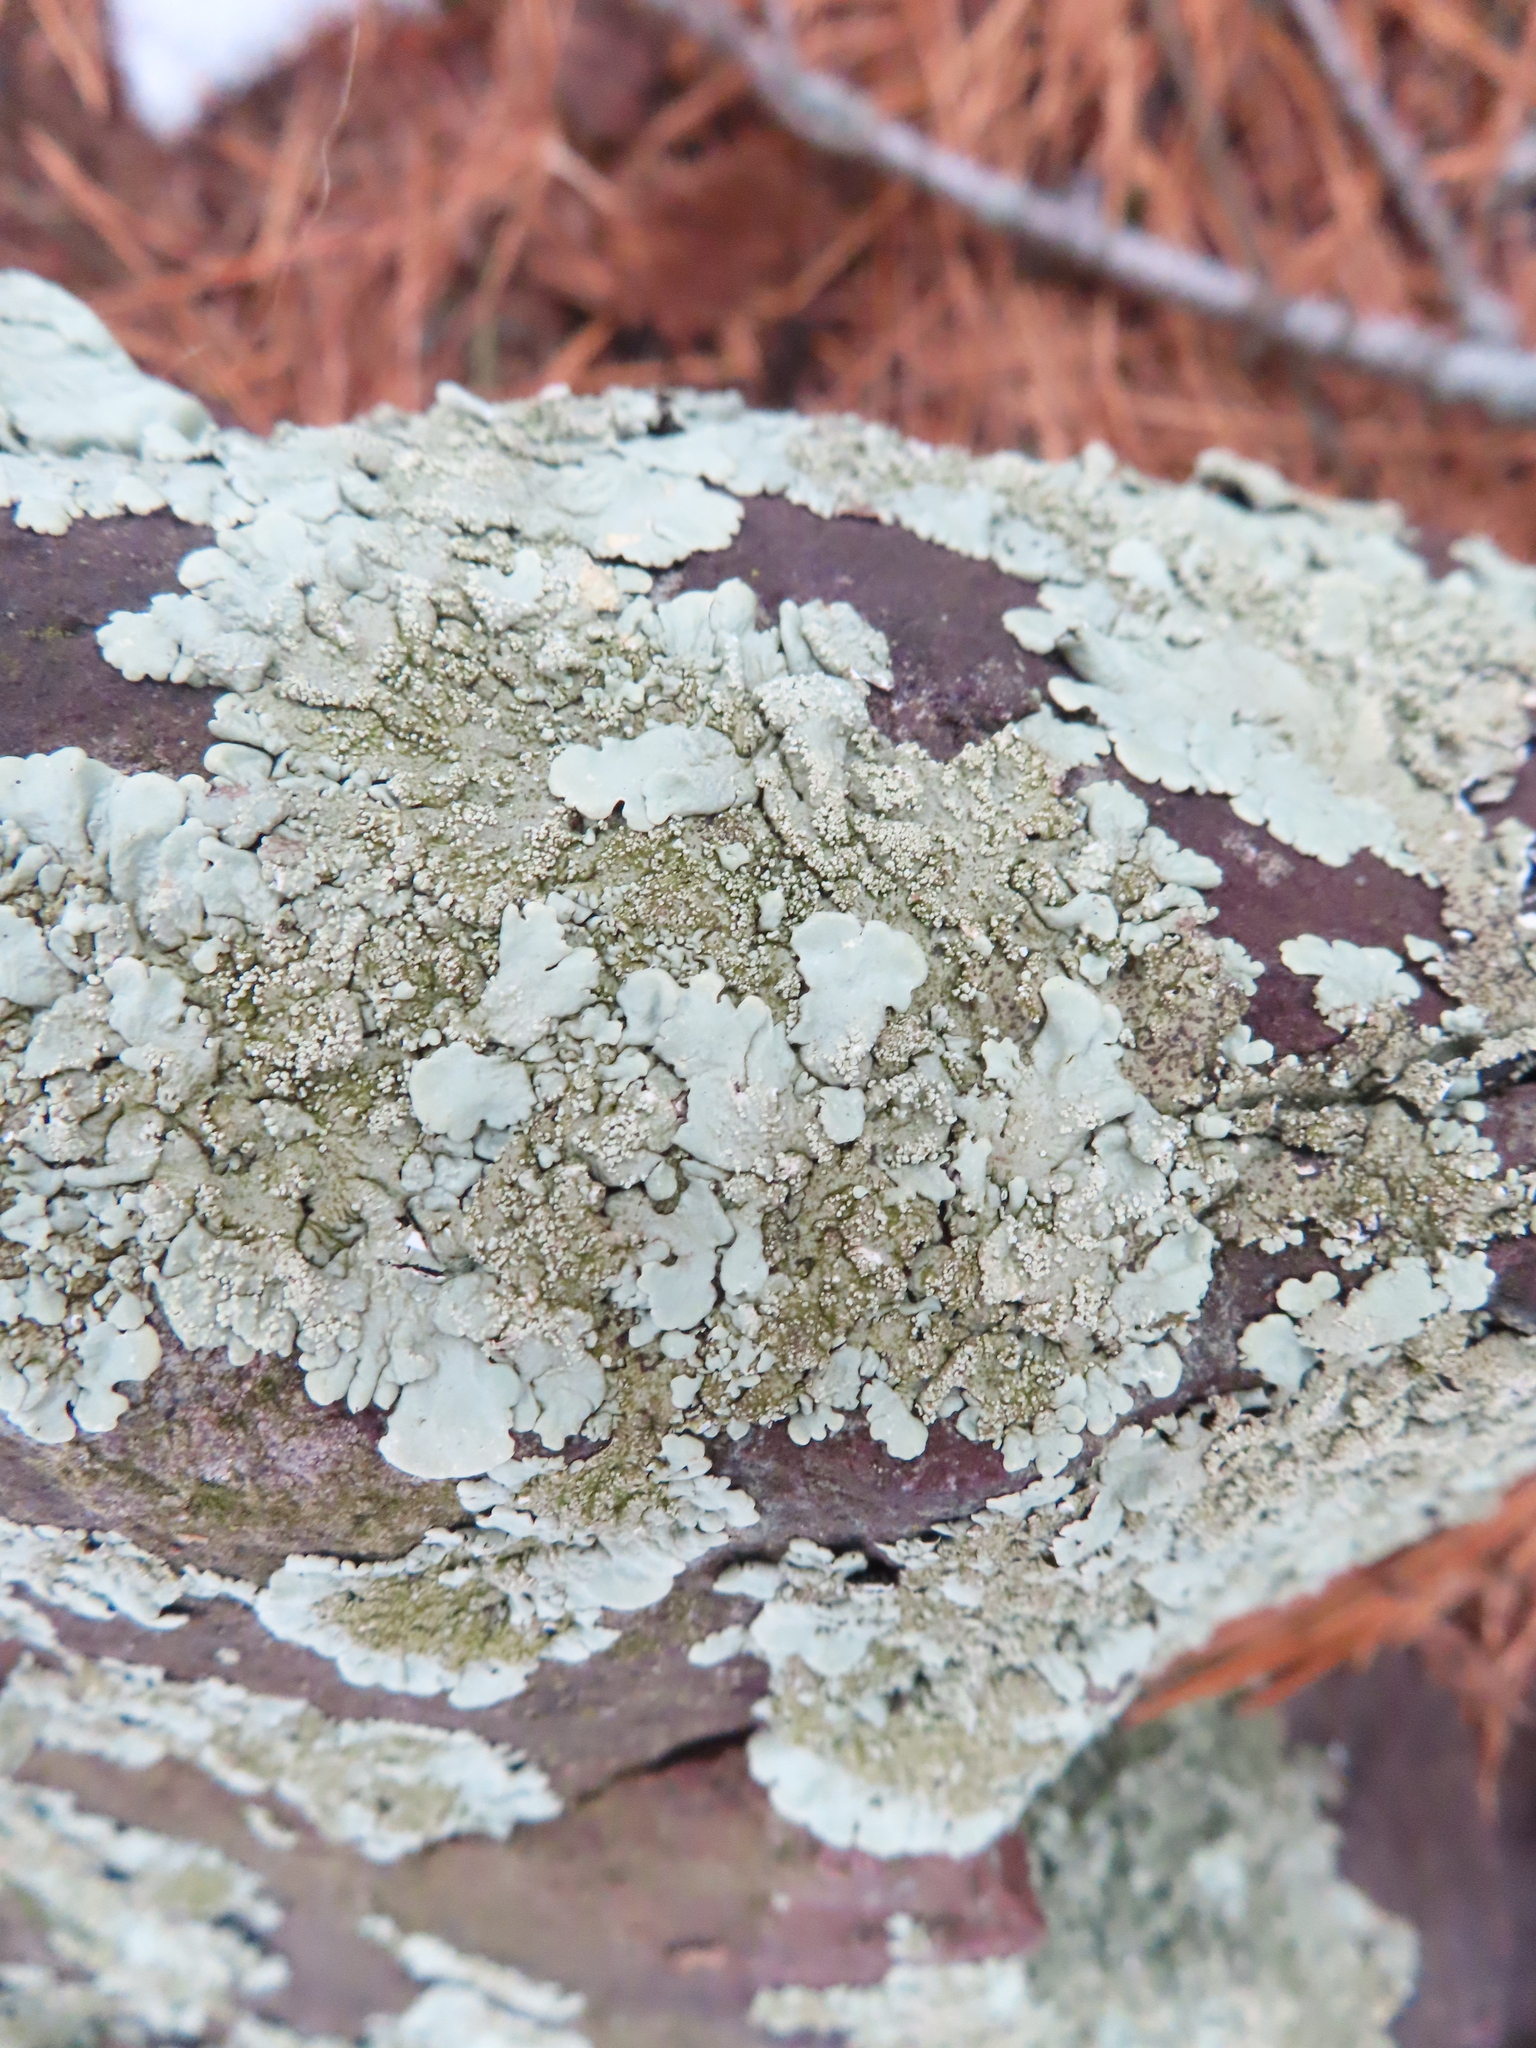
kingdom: Fungi
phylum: Ascomycota
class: Lecanoromycetes
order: Lecanorales
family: Parmeliaceae
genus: Flavoparmelia
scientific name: Flavoparmelia baltimorensis
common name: Rock greenshield
